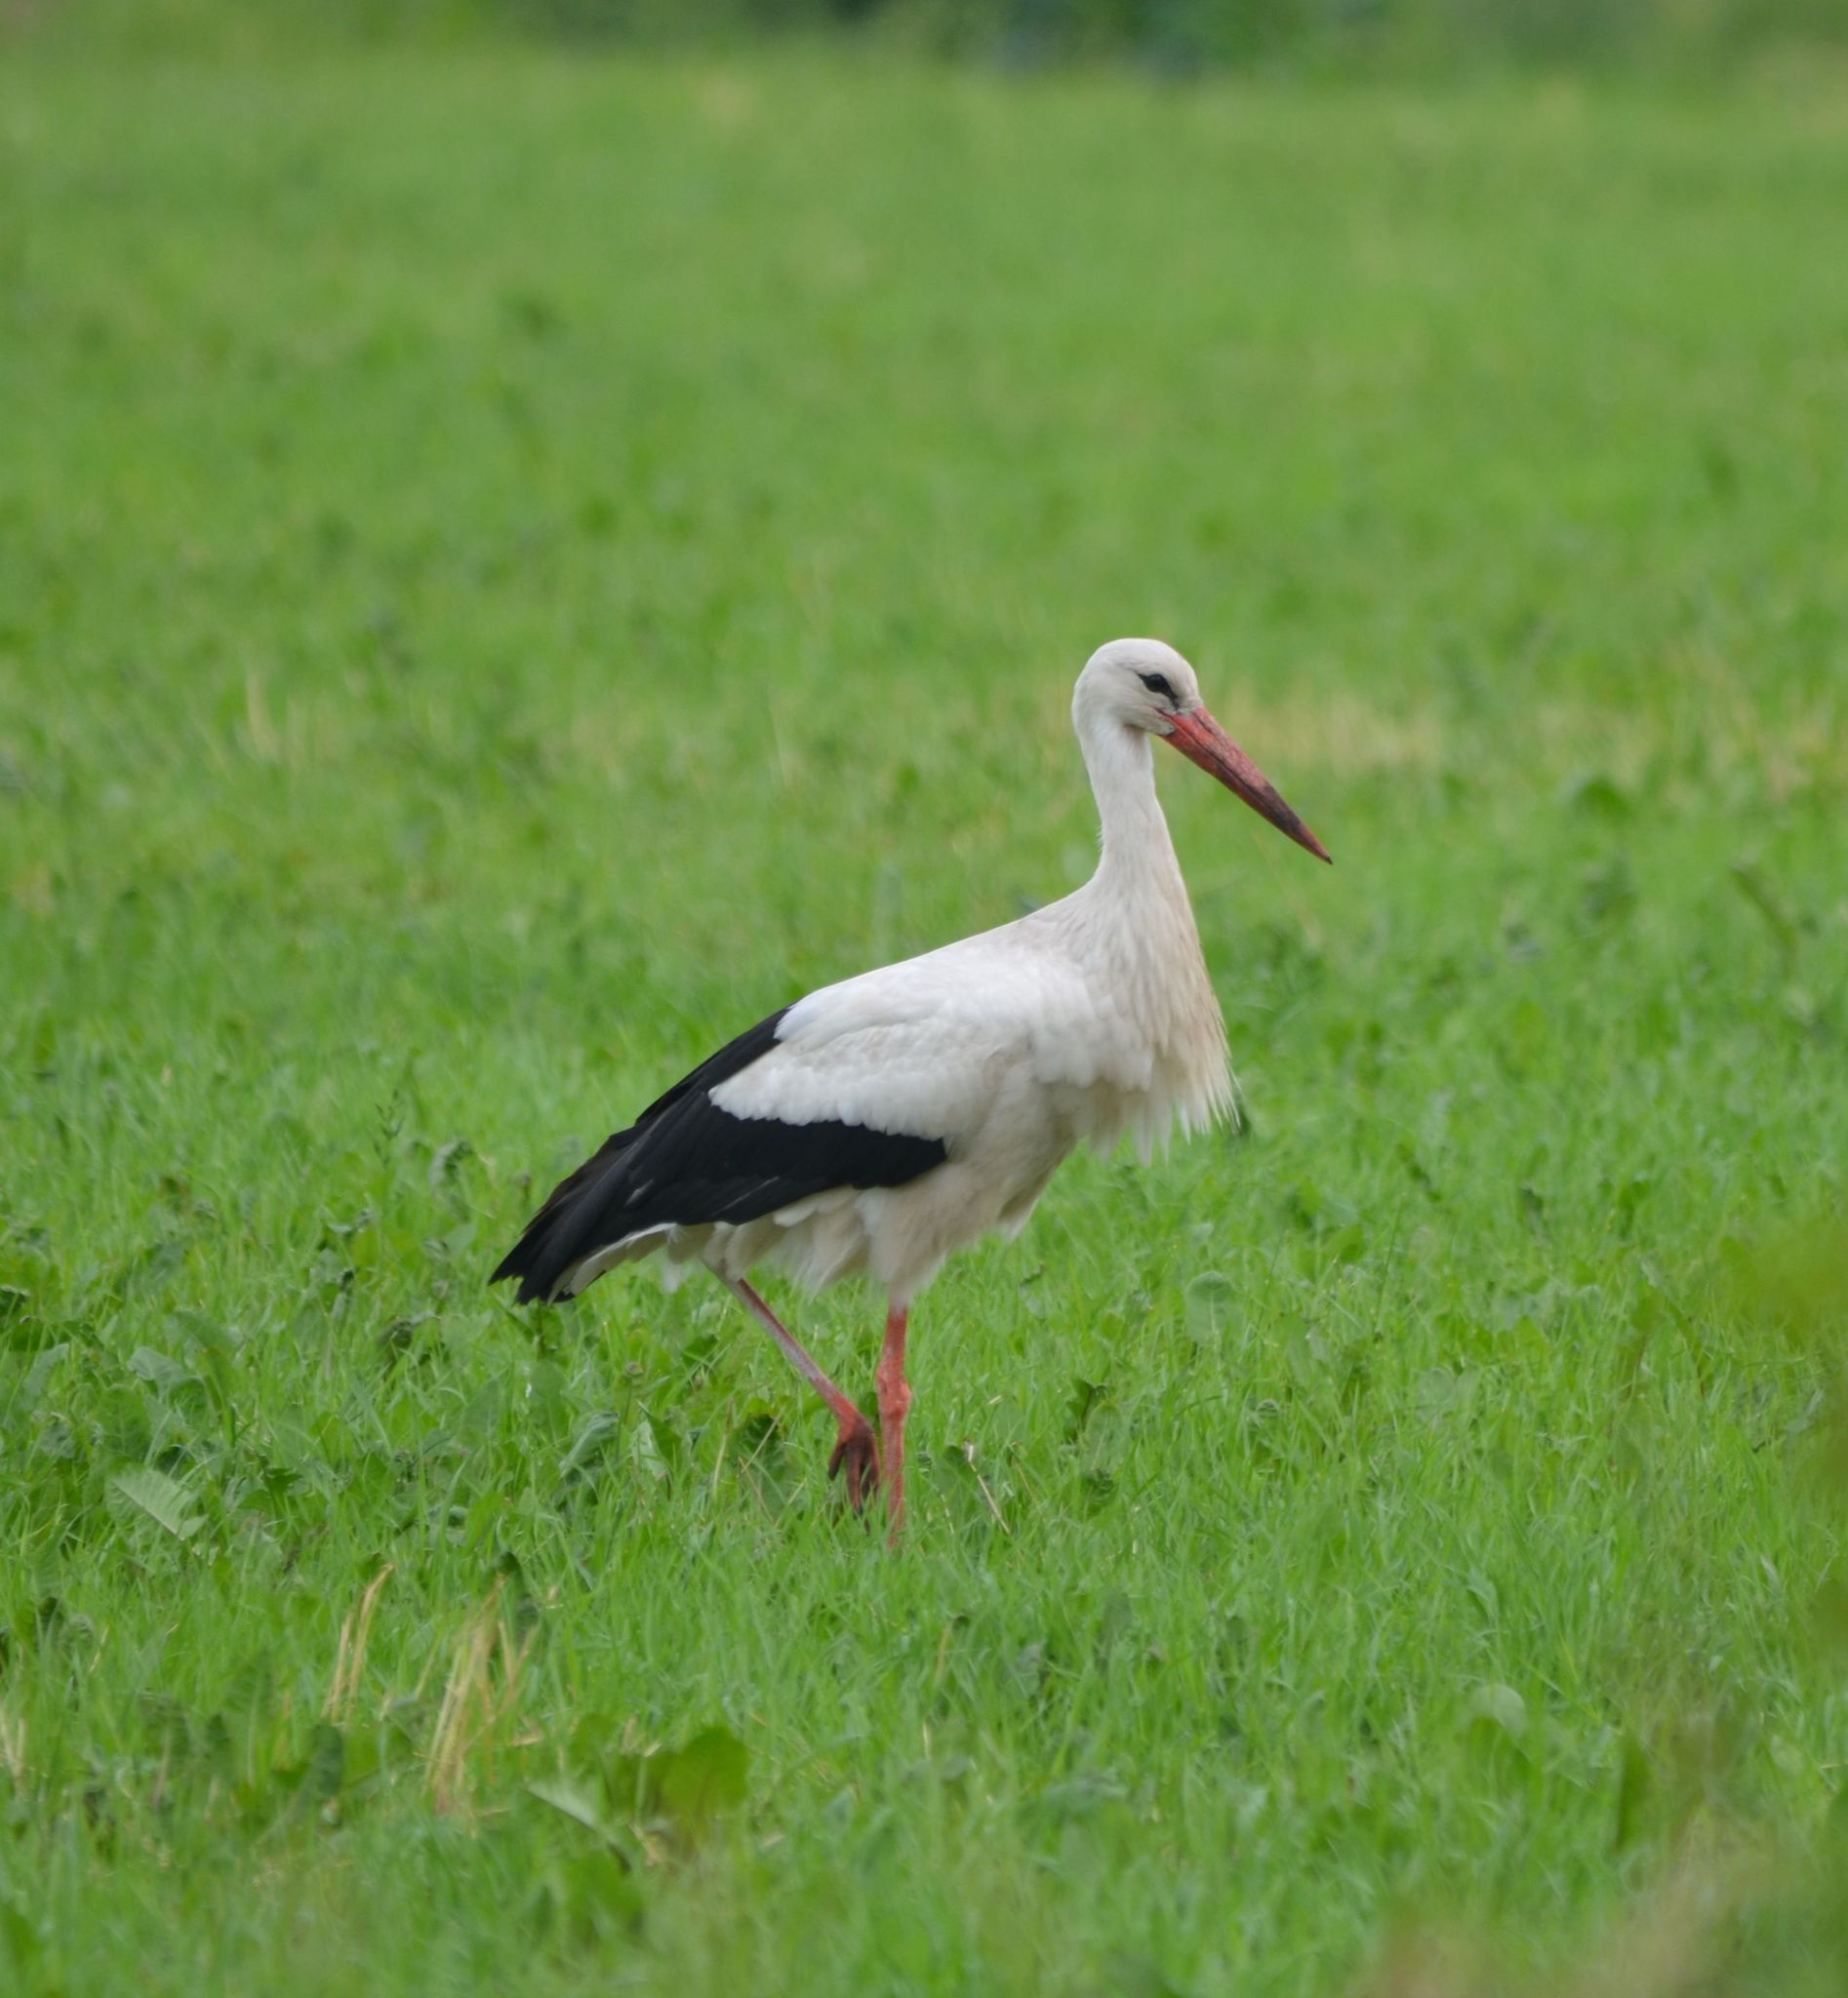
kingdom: Animalia
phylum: Chordata
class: Aves
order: Ciconiiformes
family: Ciconiidae
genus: Ciconia
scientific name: Ciconia ciconia
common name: White stork
